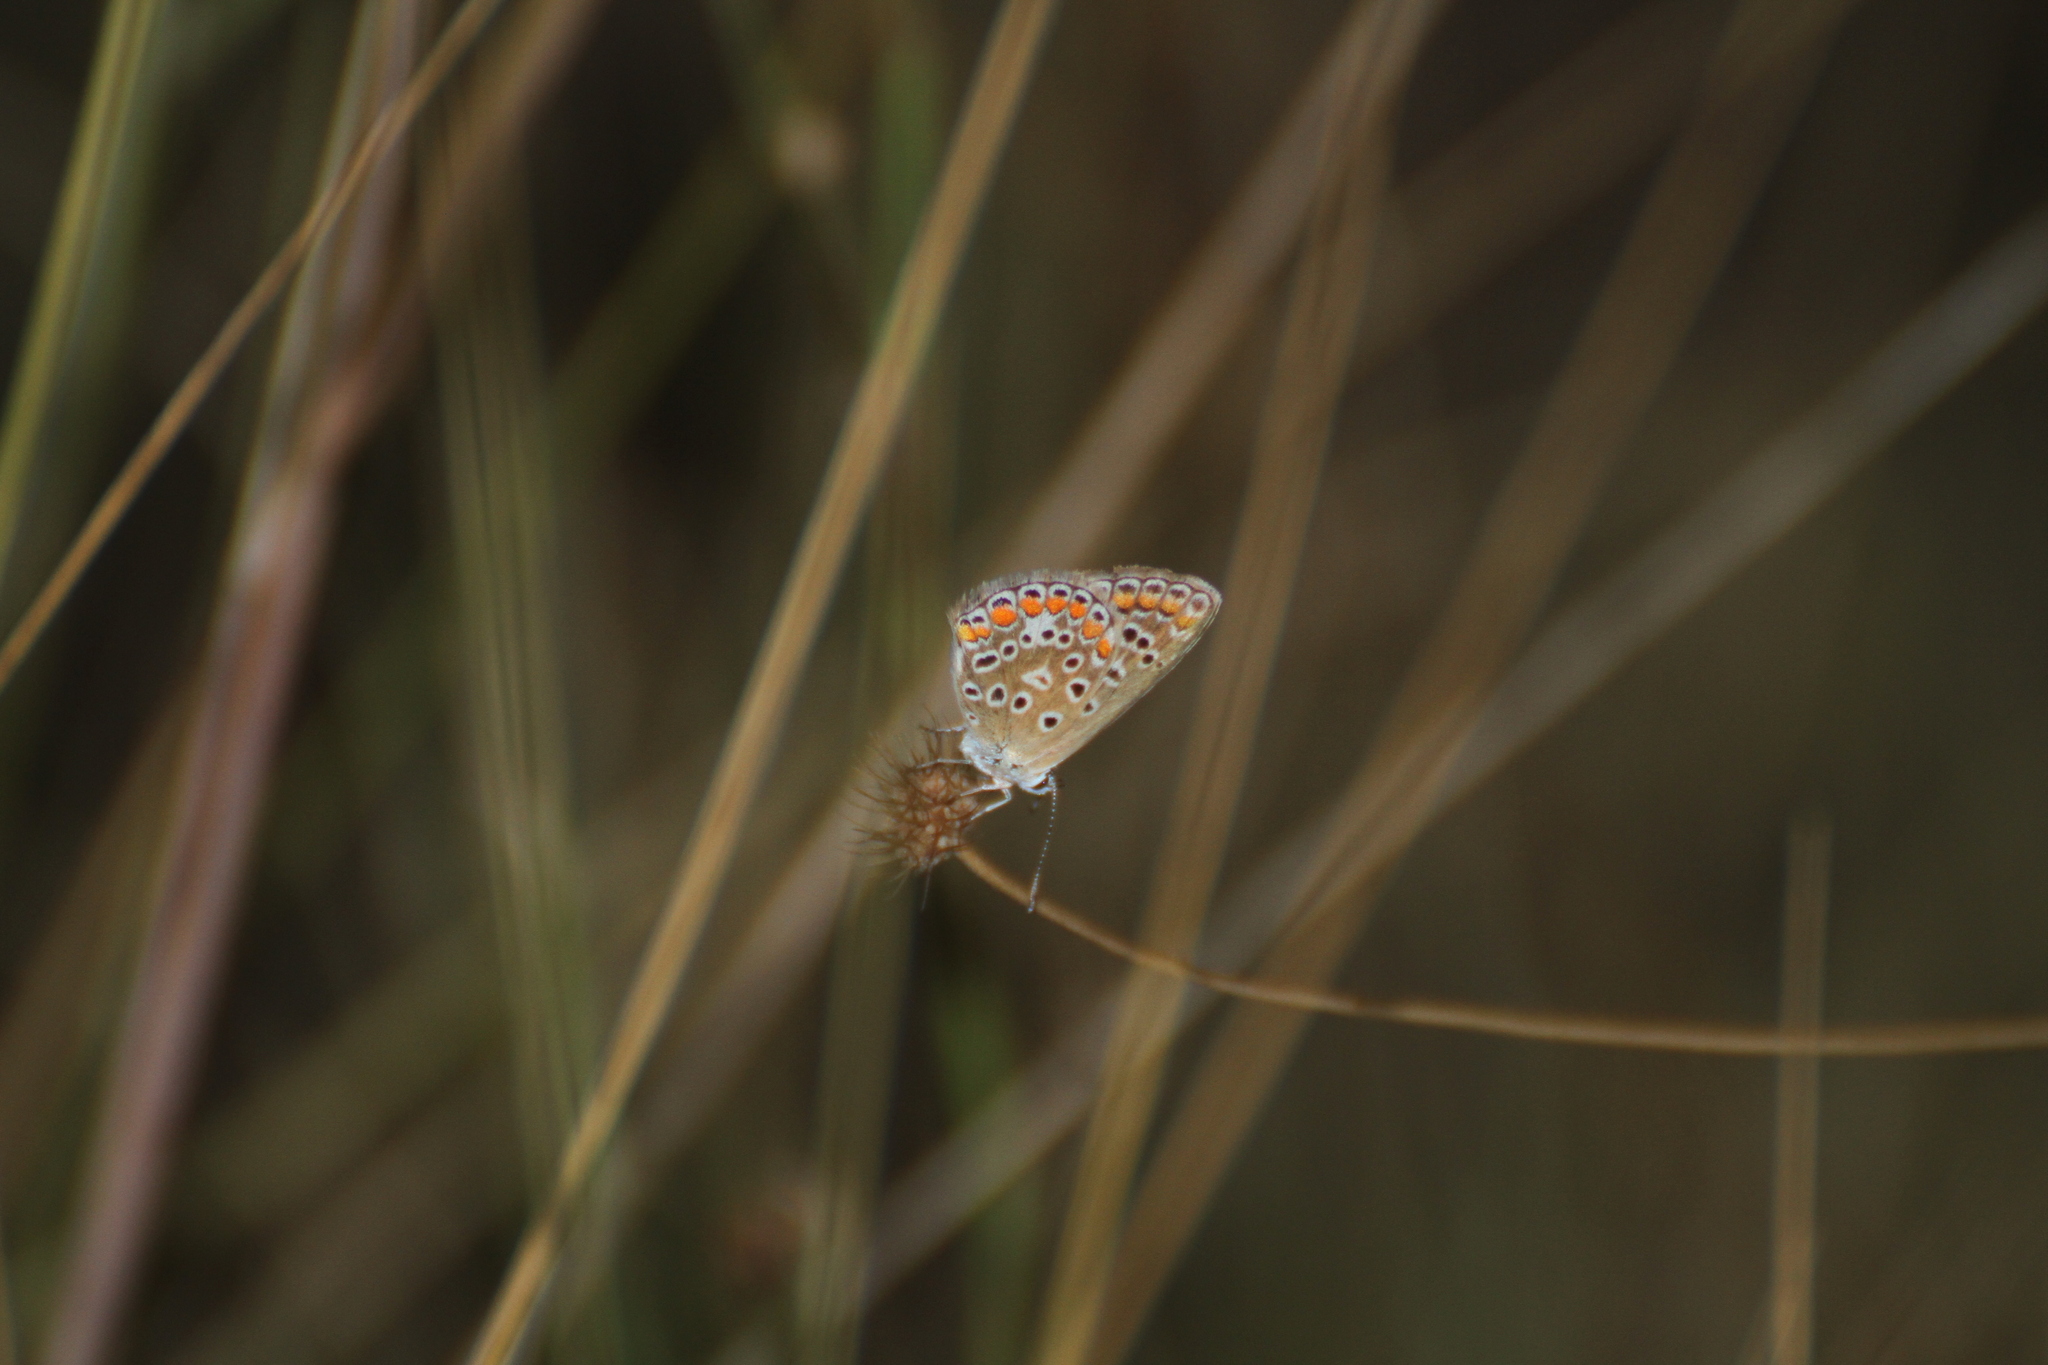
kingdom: Animalia
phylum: Arthropoda
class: Insecta
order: Lepidoptera
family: Lycaenidae
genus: Aricia
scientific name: Aricia agestis
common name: Brown argus
